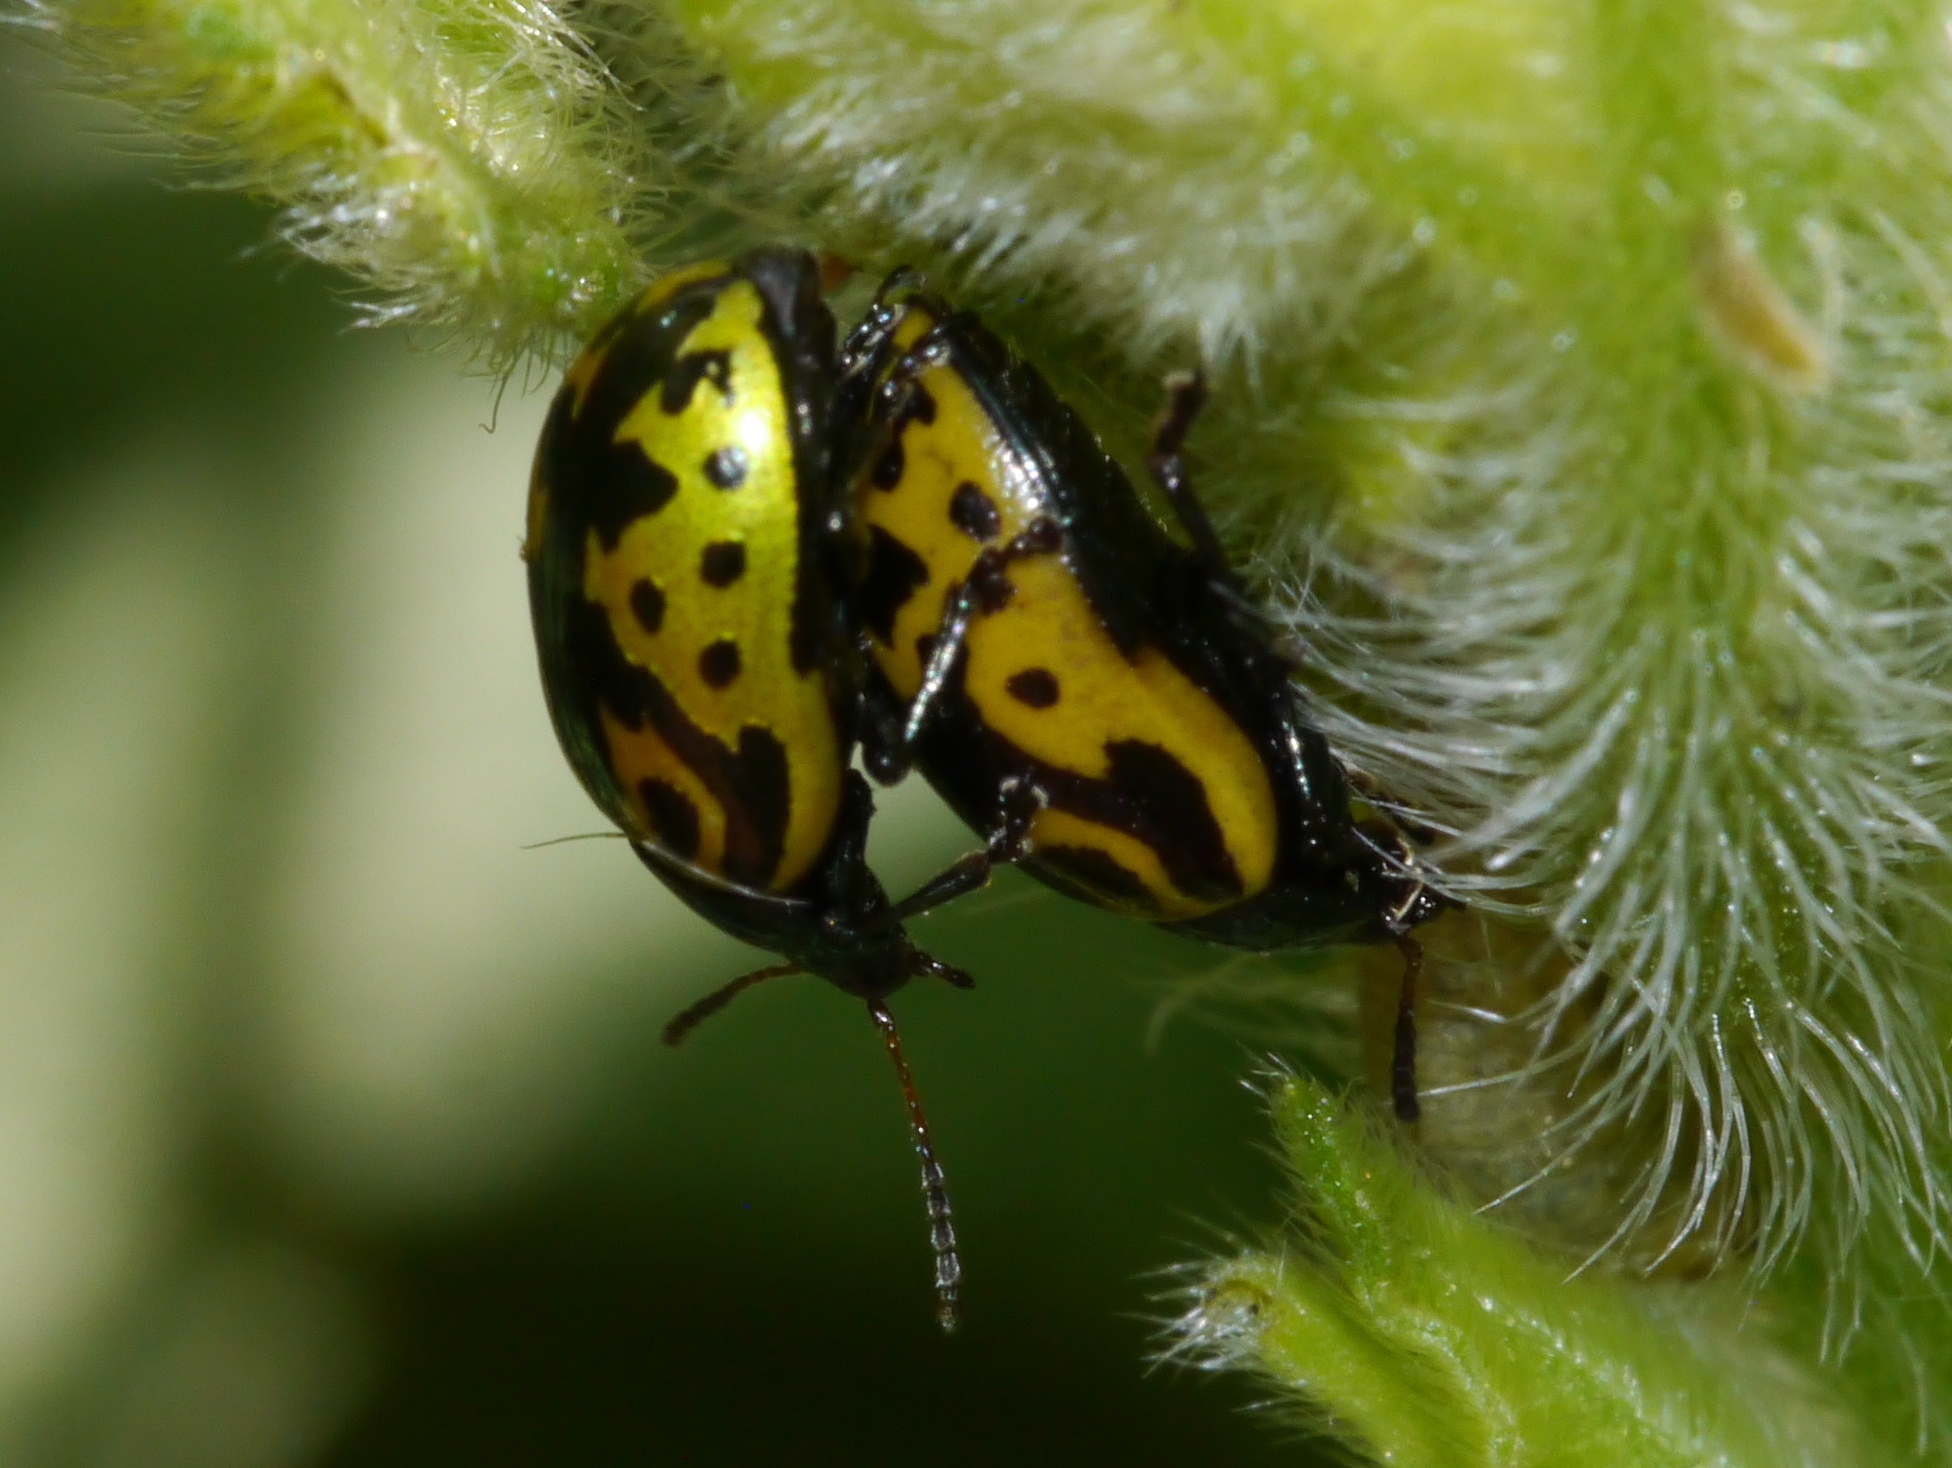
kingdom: Animalia
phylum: Arthropoda
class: Insecta
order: Coleoptera
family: Chrysomelidae
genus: Calligrapha
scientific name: Calligrapha
